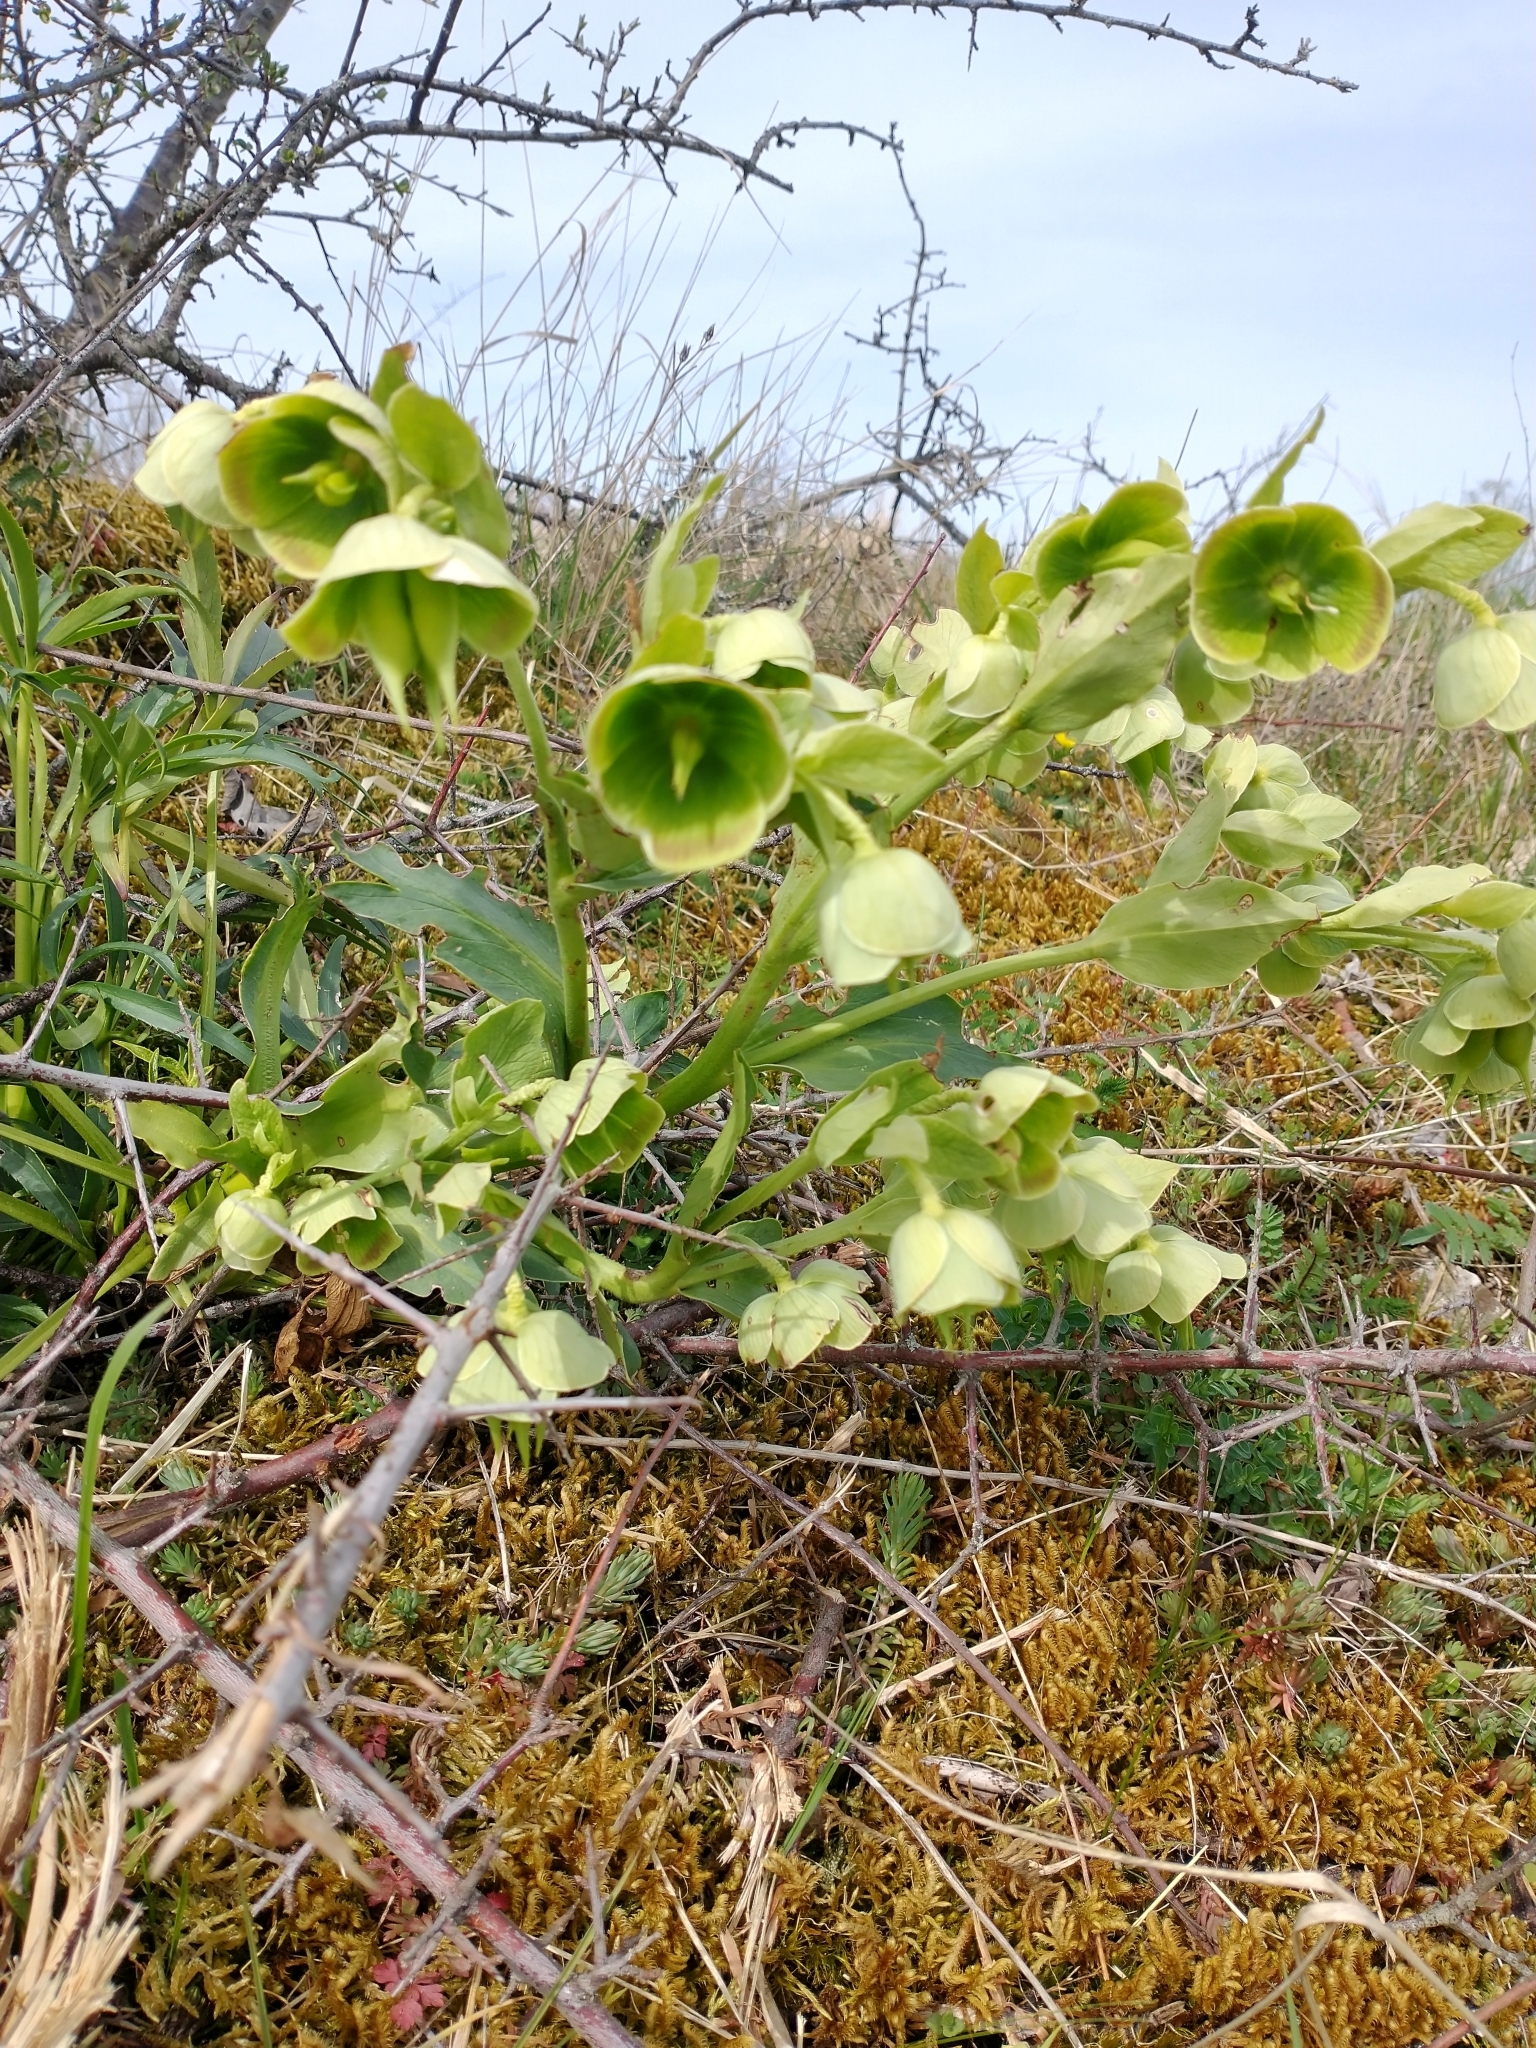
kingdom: Plantae
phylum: Tracheophyta
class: Magnoliopsida
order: Ranunculales
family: Ranunculaceae
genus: Helleborus
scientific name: Helleborus foetidus
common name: Stinking hellebore
